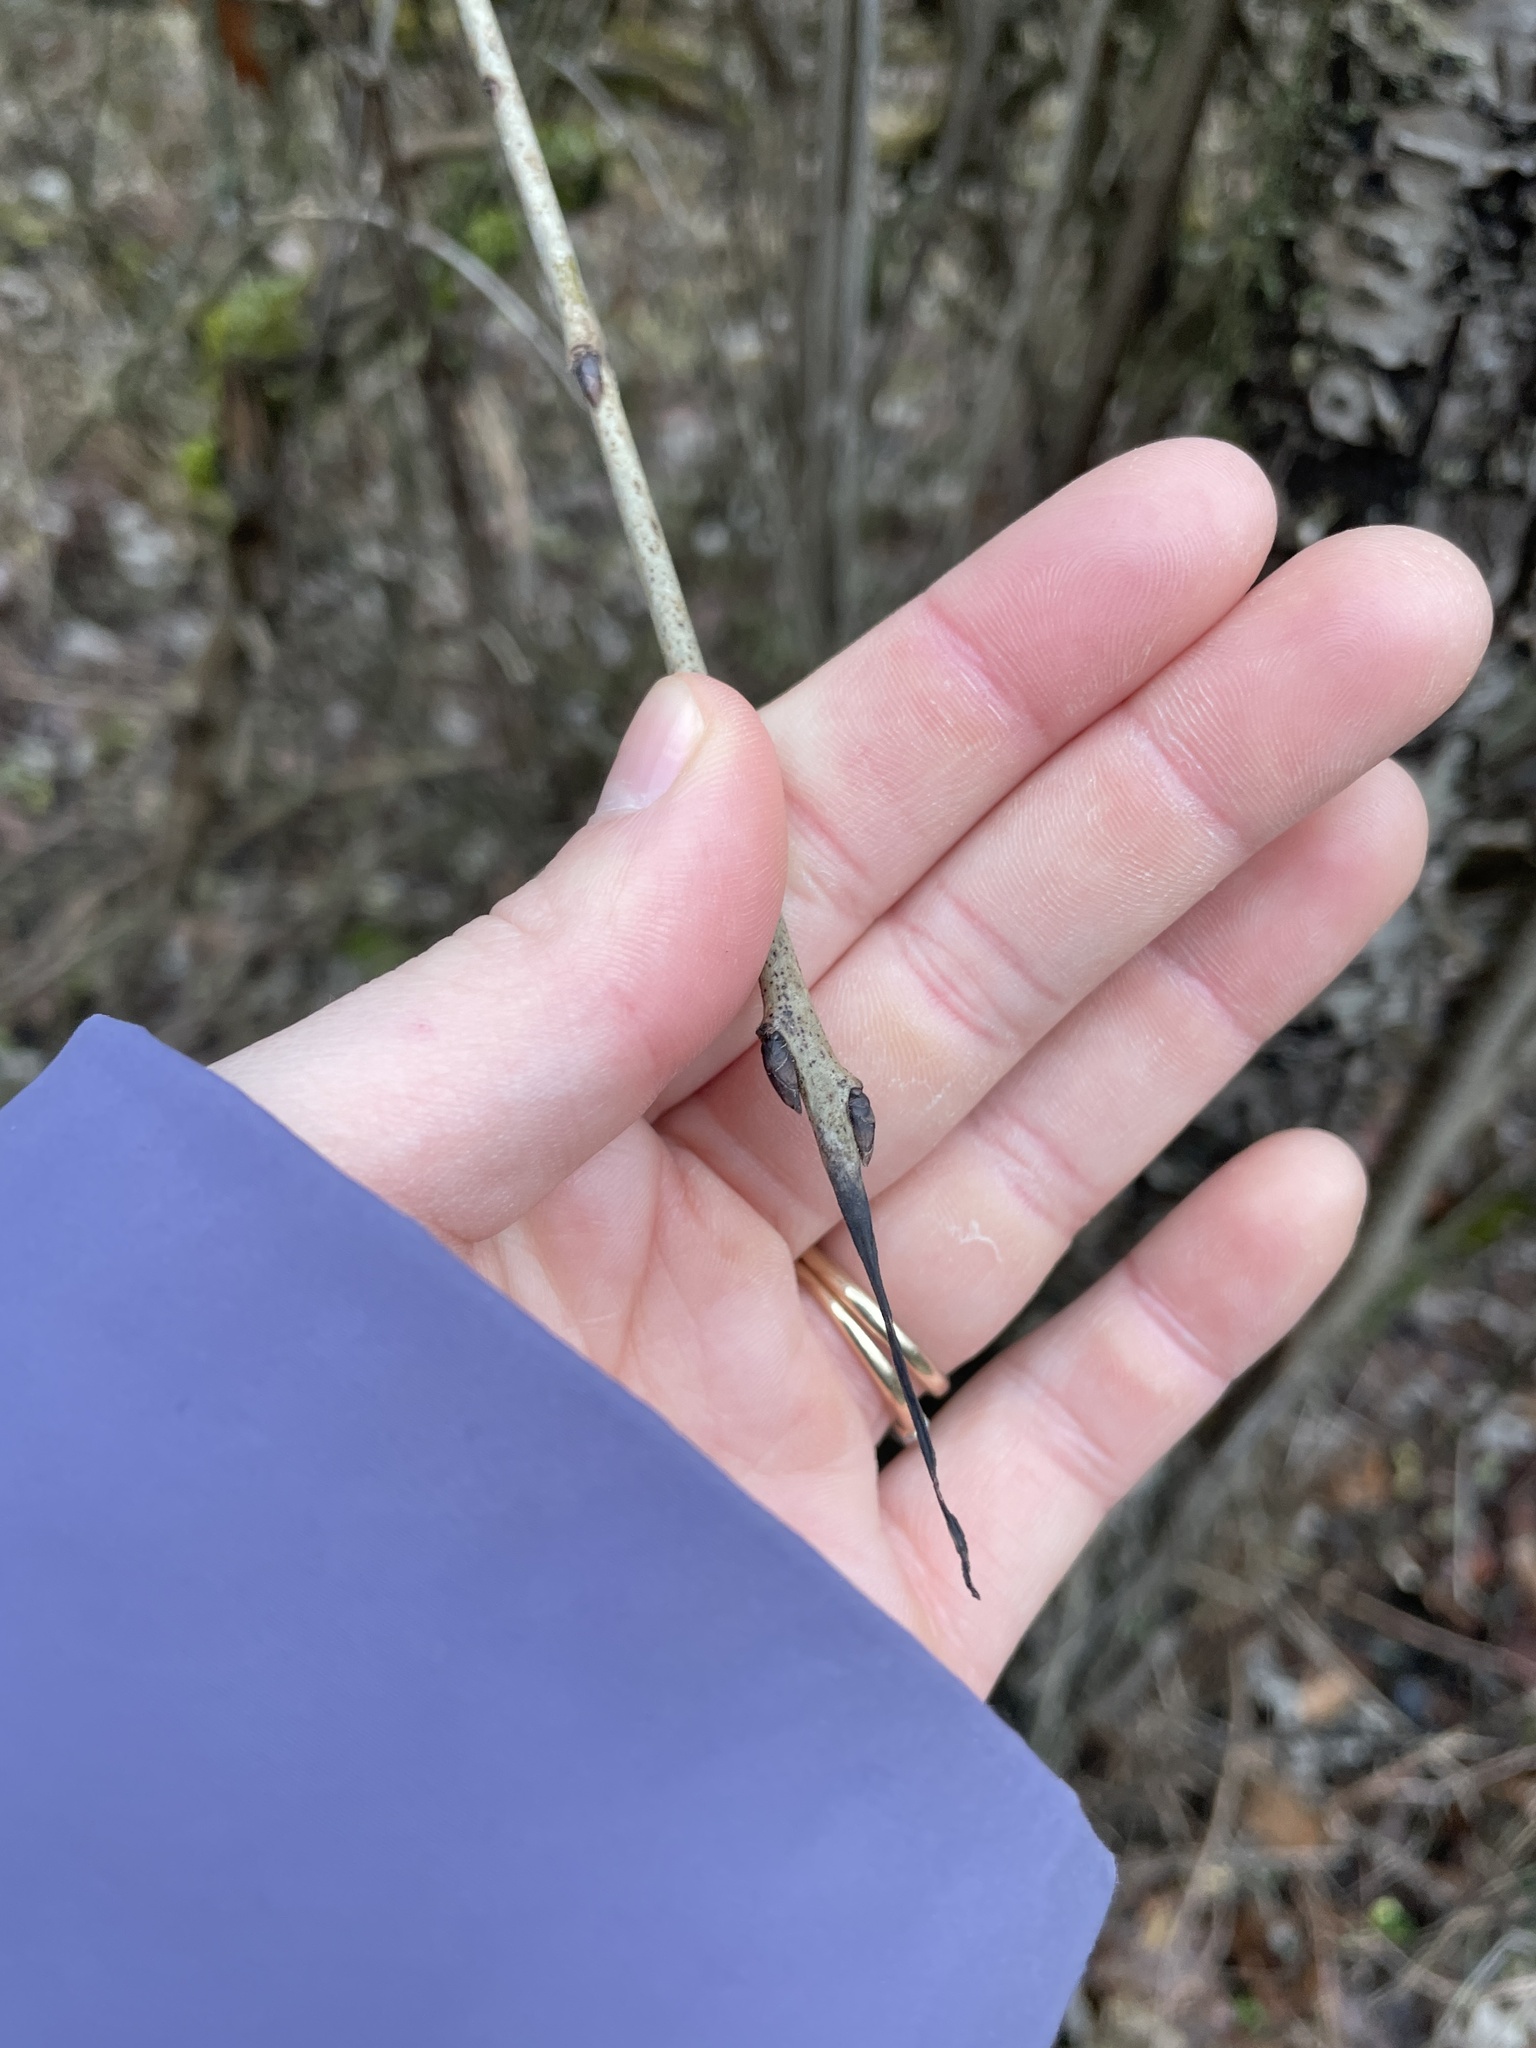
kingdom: Plantae
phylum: Tracheophyta
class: Magnoliopsida
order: Rosales
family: Rhamnaceae
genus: Rhamnus
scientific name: Rhamnus cathartica
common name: Common buckthorn
